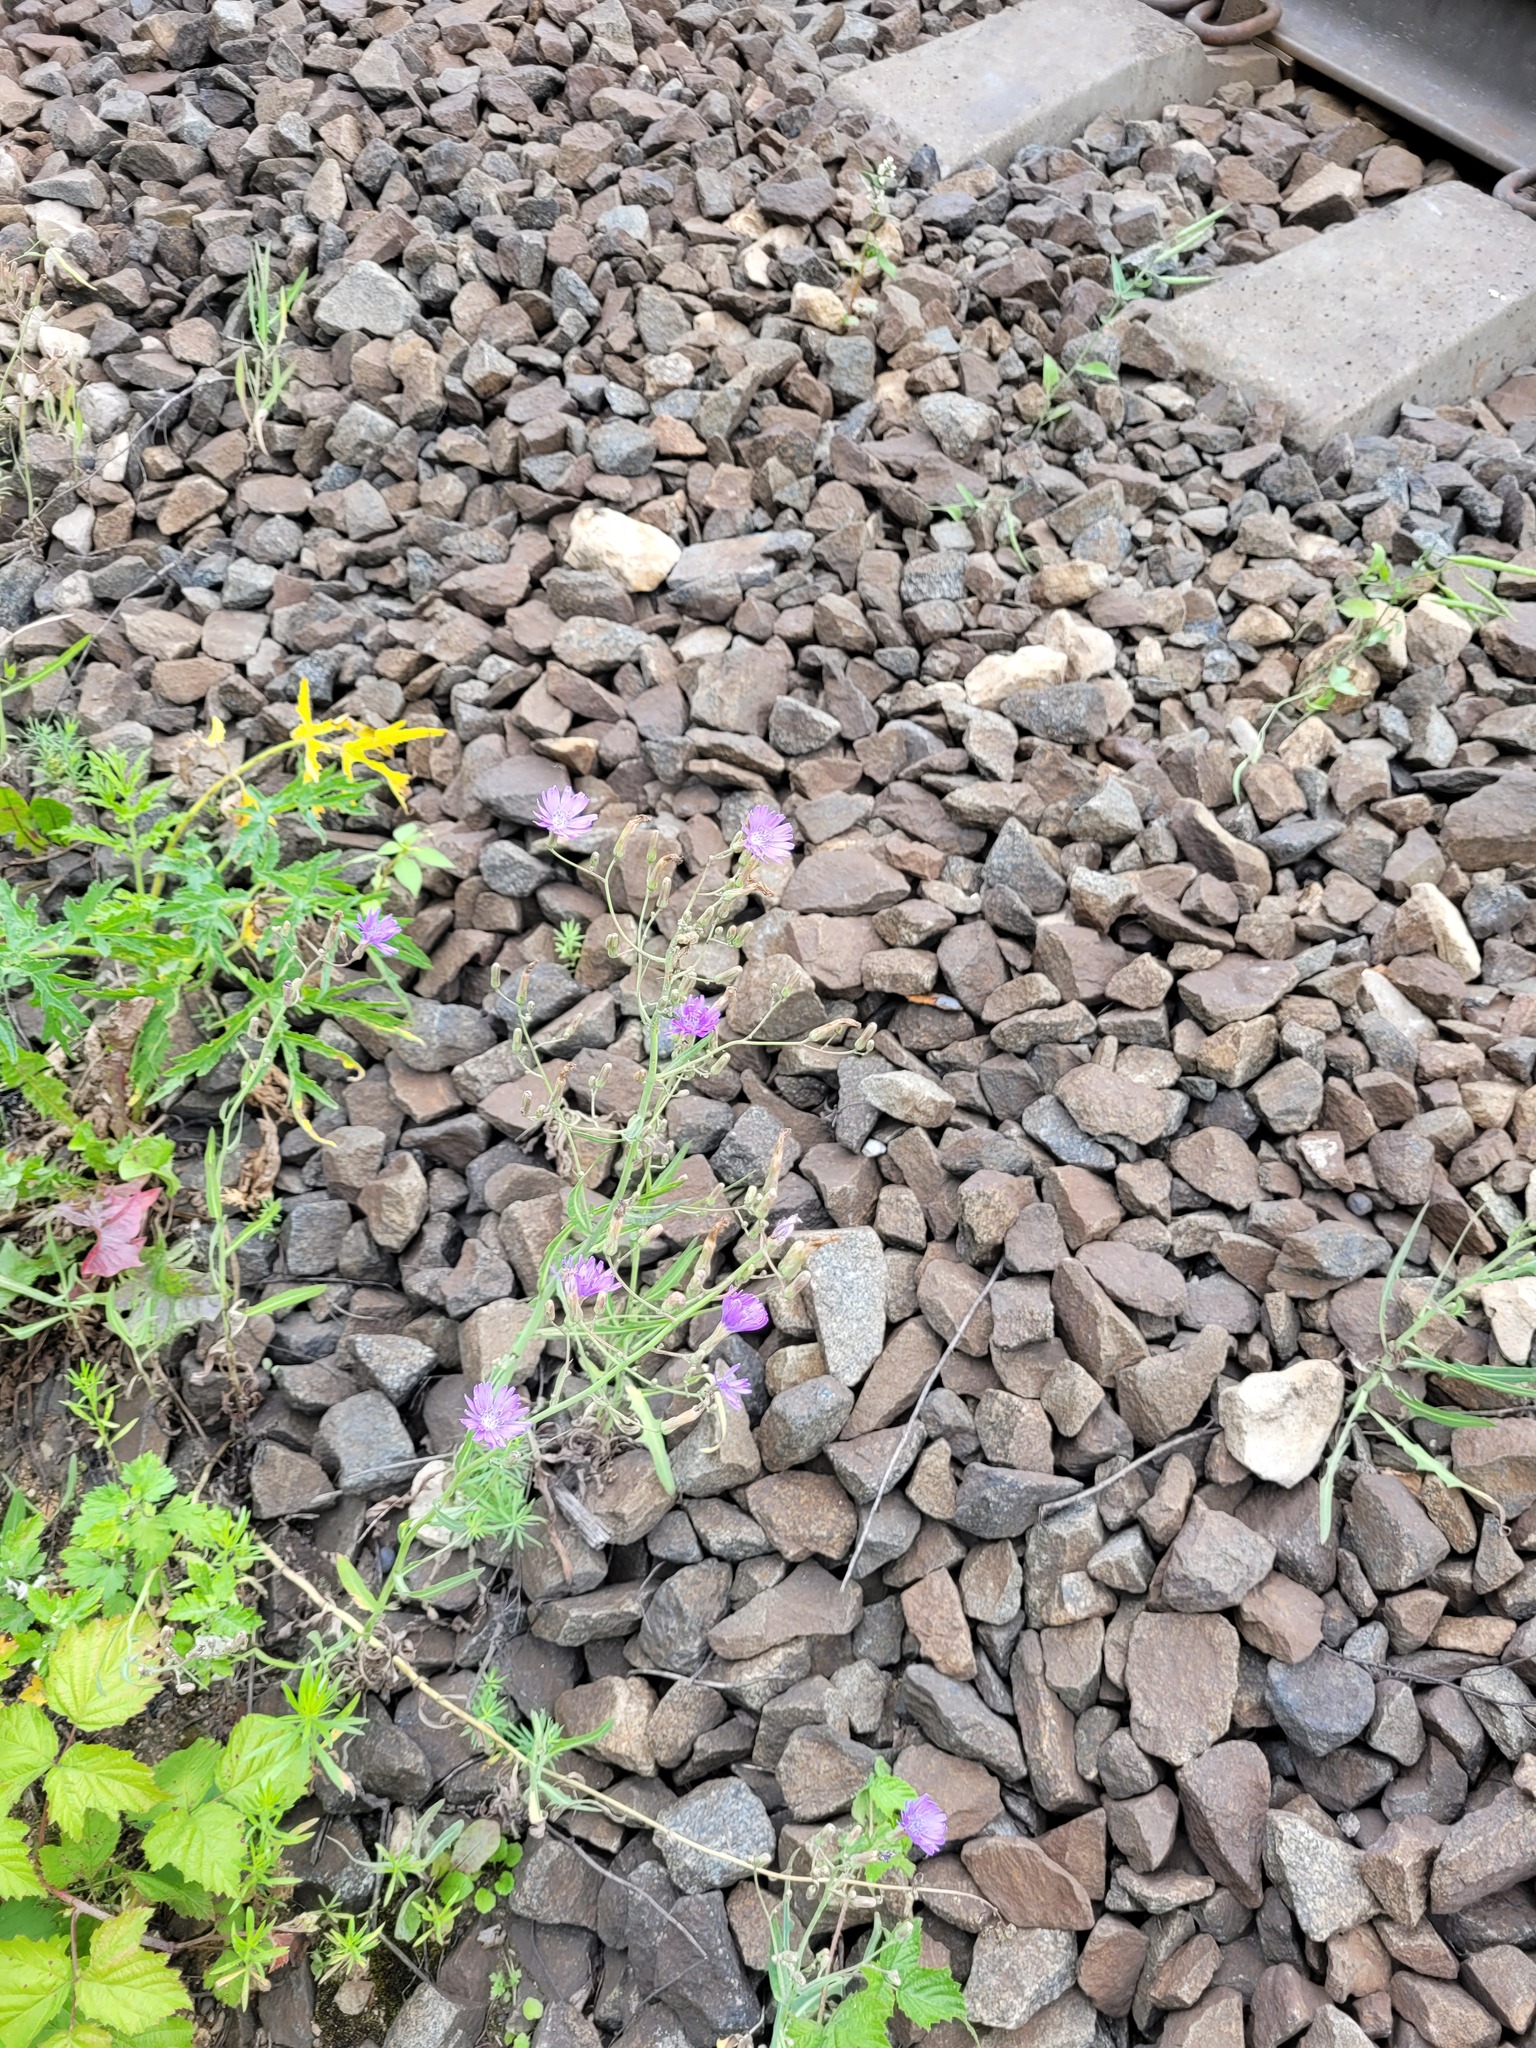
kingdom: Plantae
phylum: Tracheophyta
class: Magnoliopsida
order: Asterales
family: Asteraceae
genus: Lactuca
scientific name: Lactuca tatarica
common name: Blue lettuce
